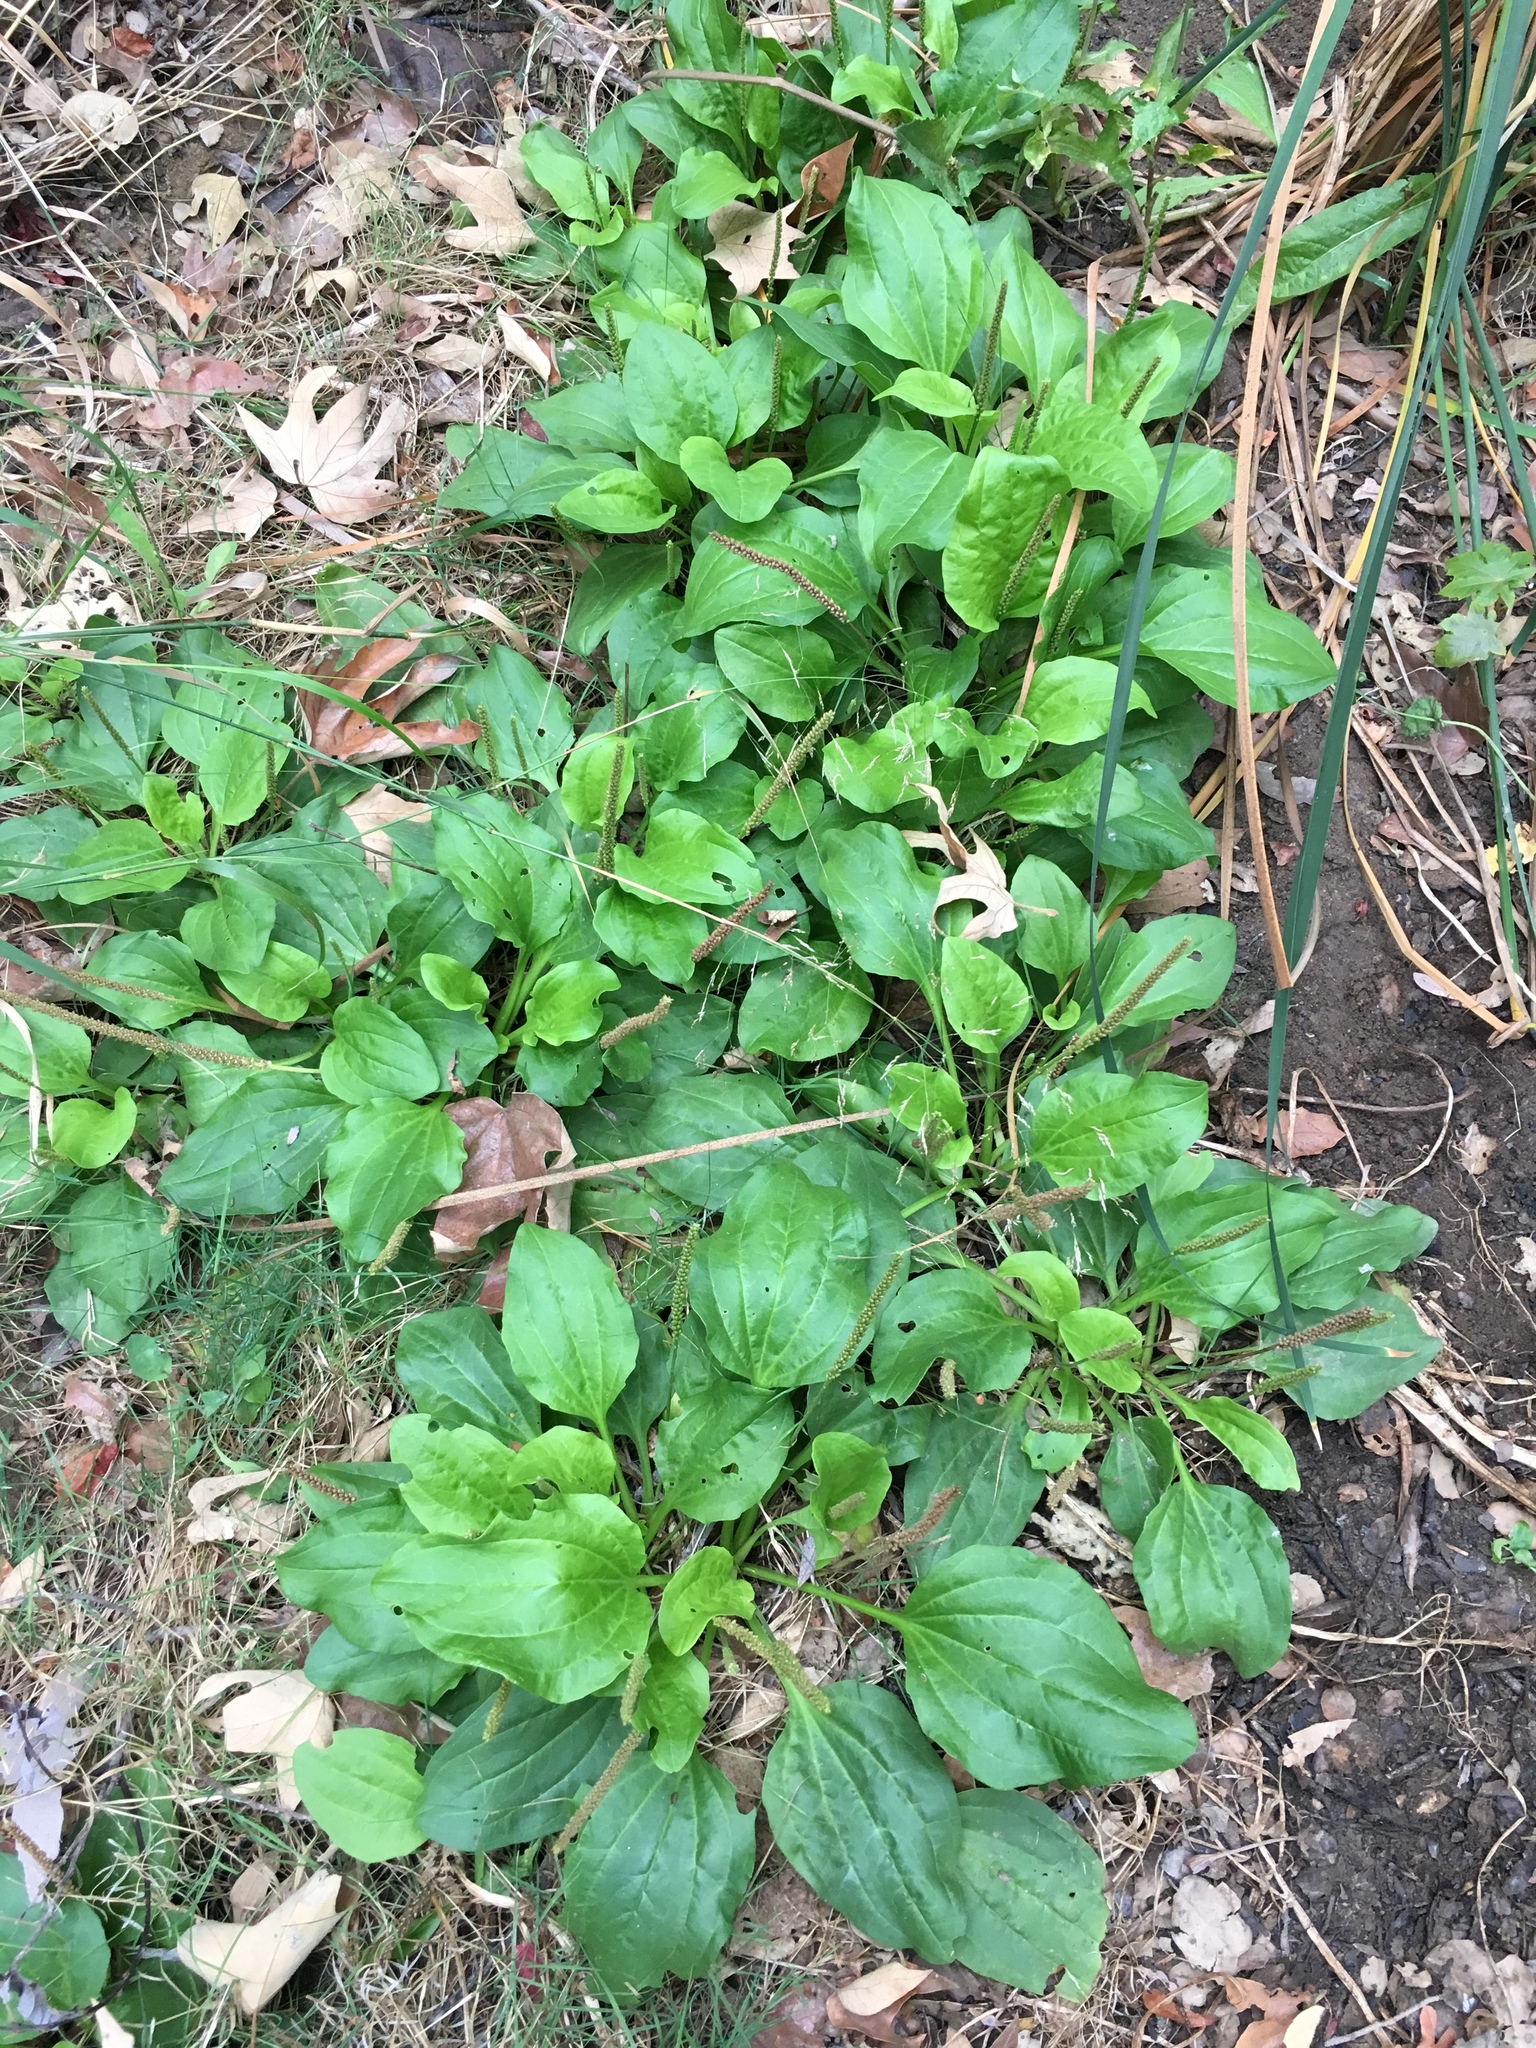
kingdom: Plantae
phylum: Tracheophyta
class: Magnoliopsida
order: Lamiales
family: Plantaginaceae
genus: Plantago
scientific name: Plantago major
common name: Common plantain
